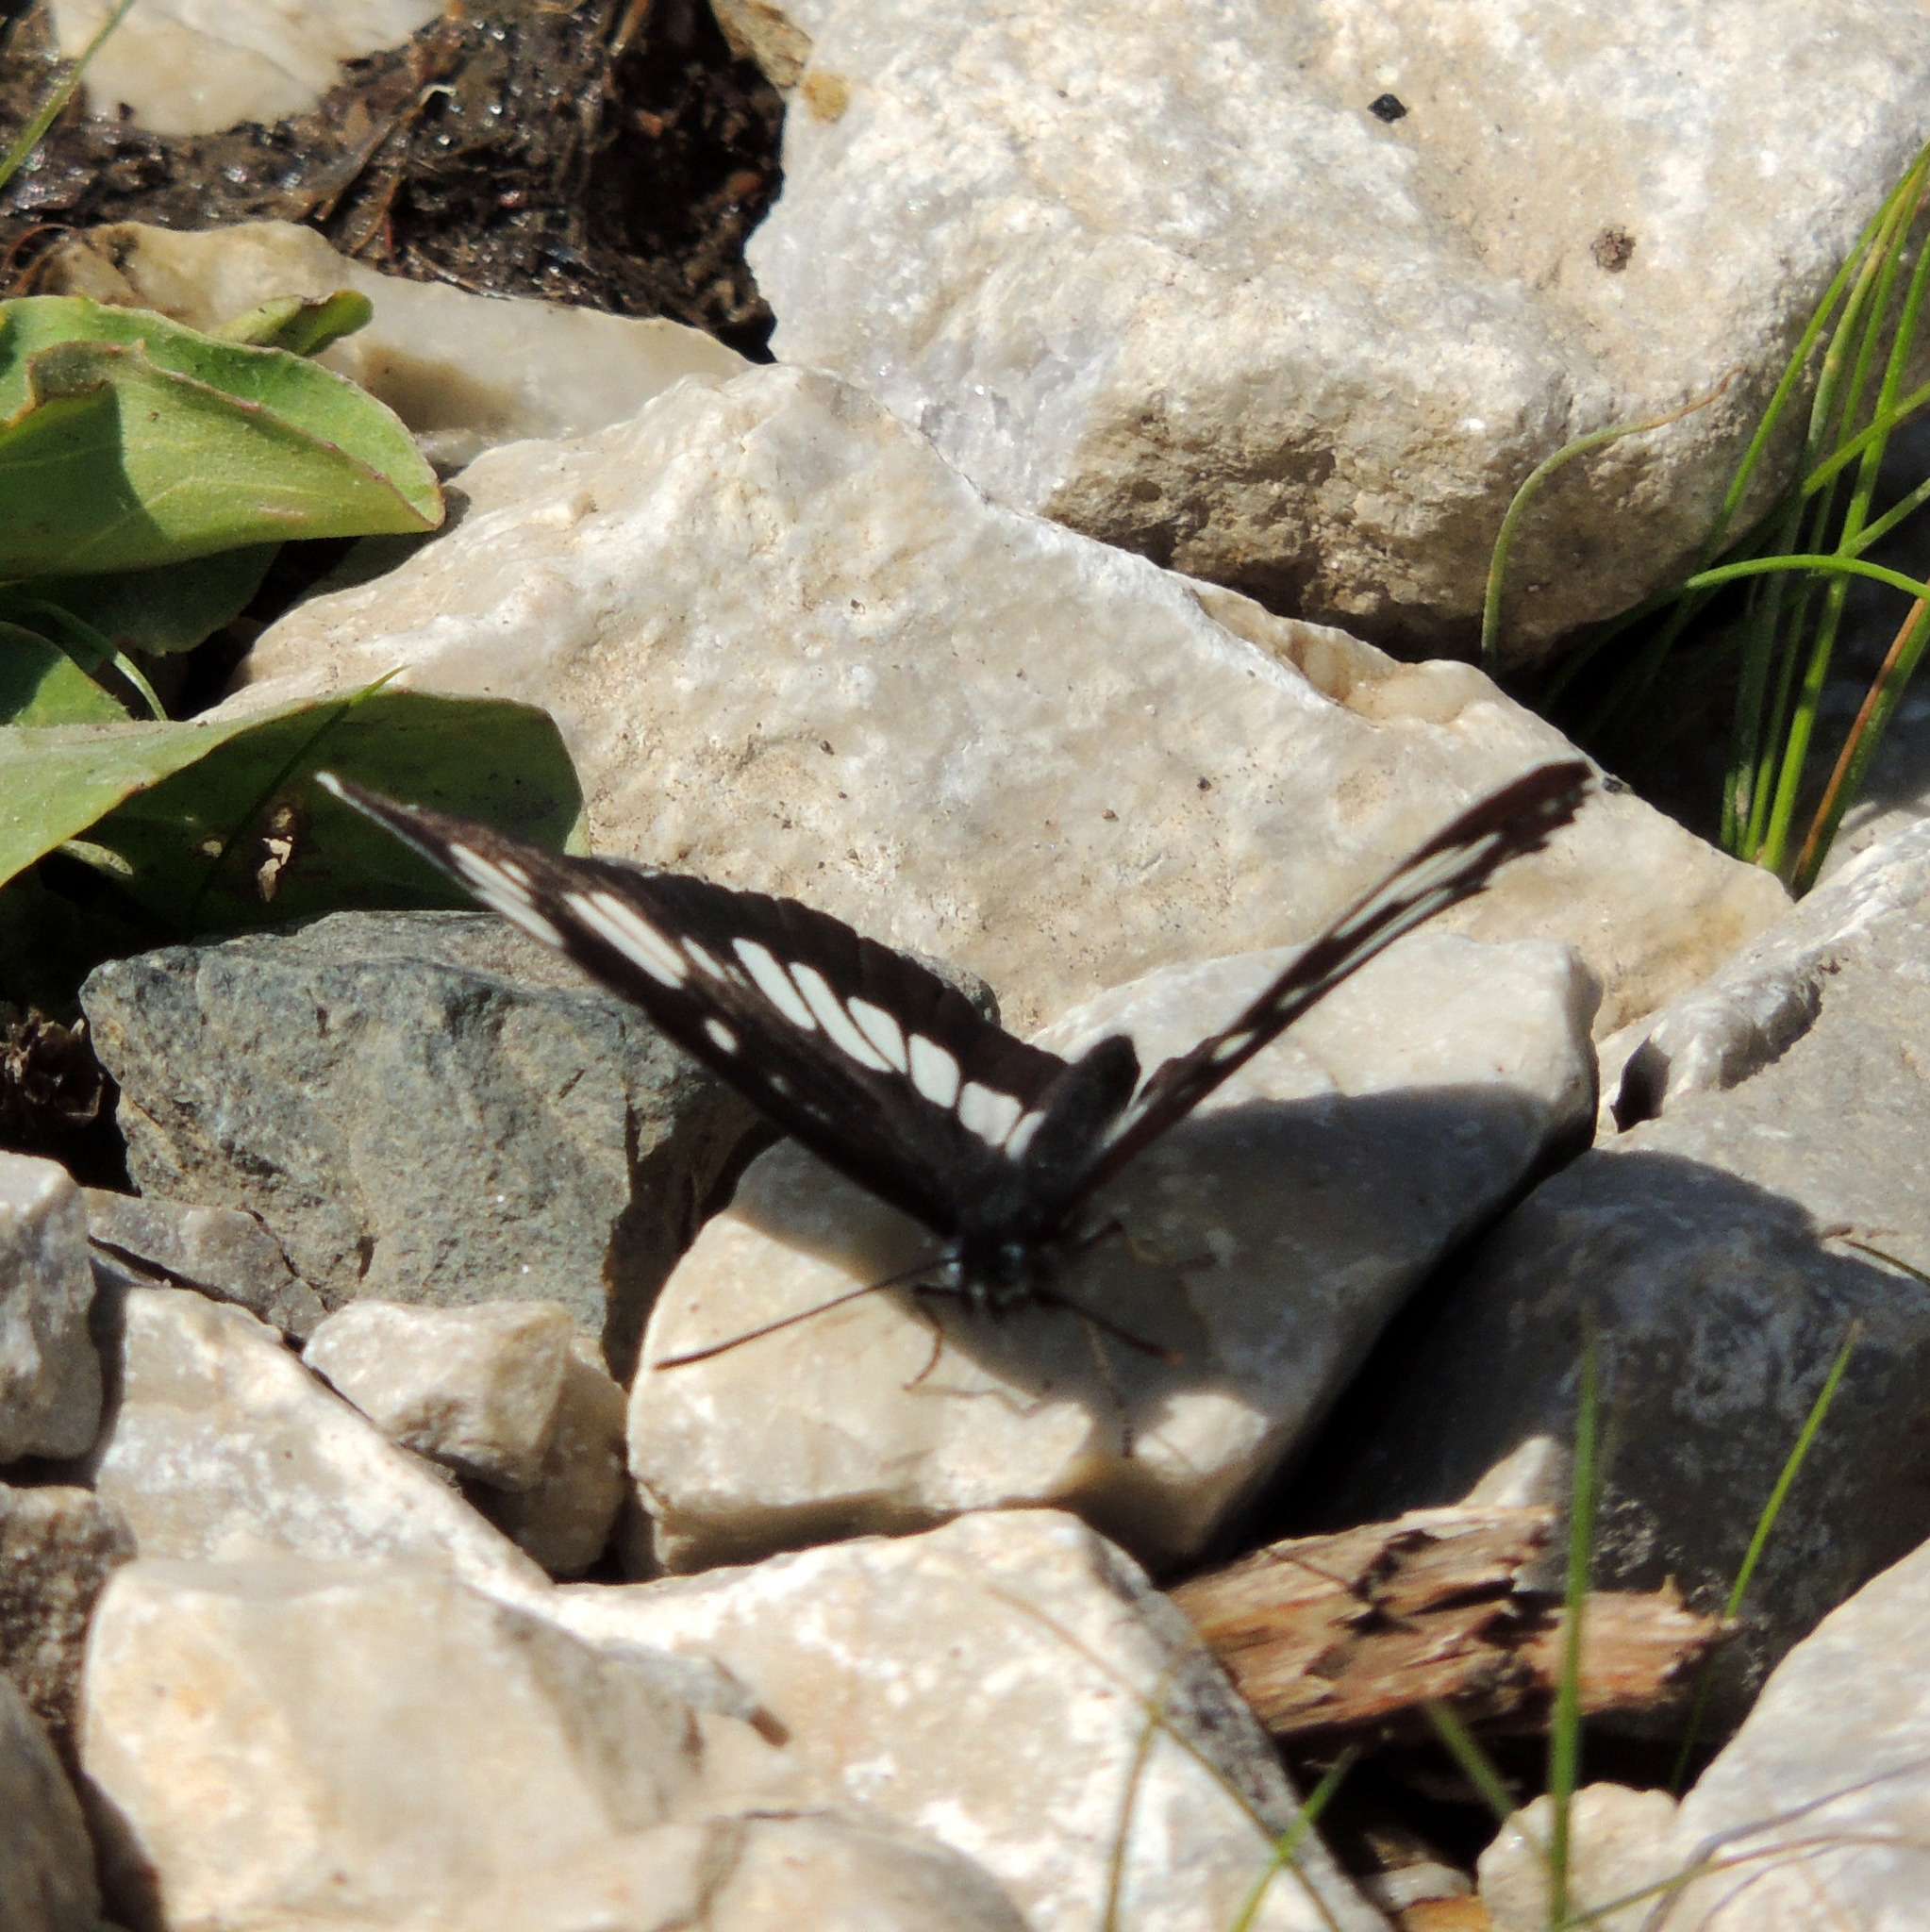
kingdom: Animalia
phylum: Arthropoda
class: Insecta
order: Lepidoptera
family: Nymphalidae
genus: Neptis
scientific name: Neptis rivularis
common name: Hungarian glider
